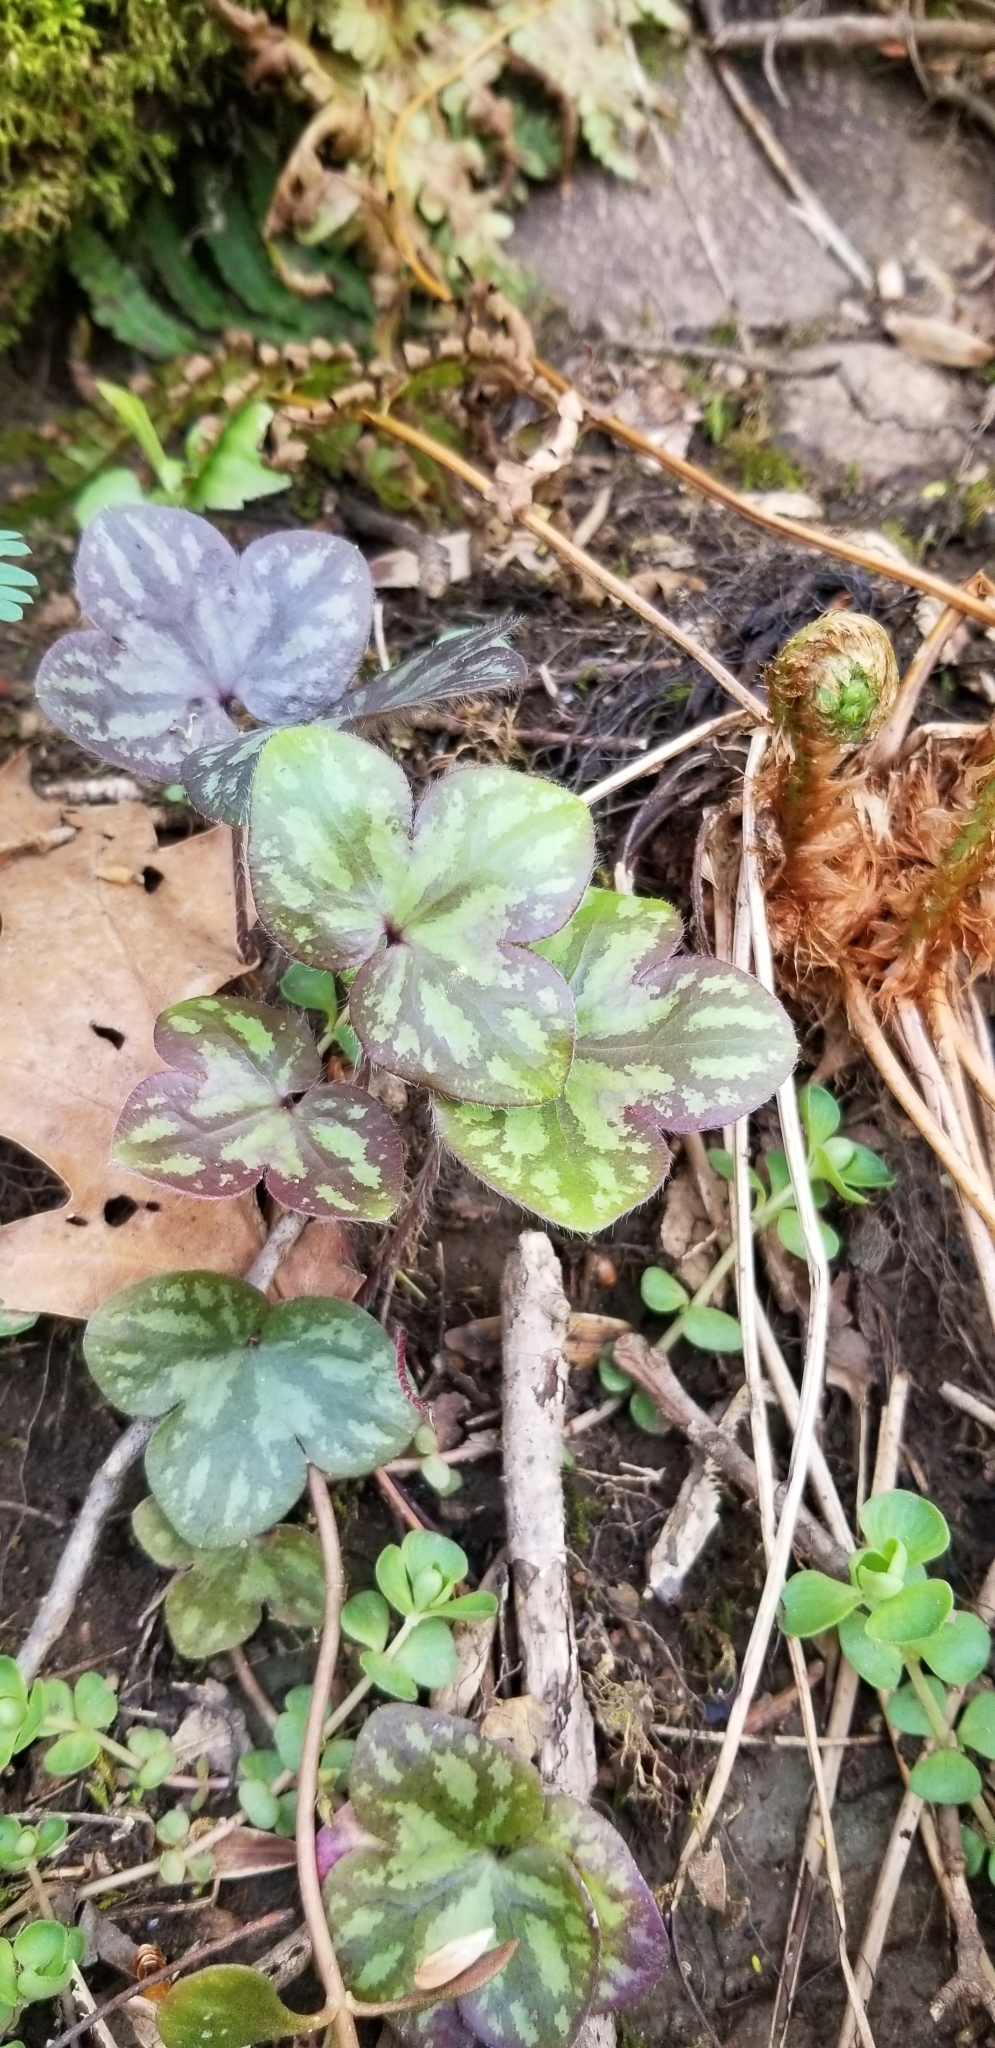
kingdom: Plantae
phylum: Tracheophyta
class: Magnoliopsida
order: Ranunculales
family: Ranunculaceae
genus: Hepatica
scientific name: Hepatica americana
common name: American hepatica
